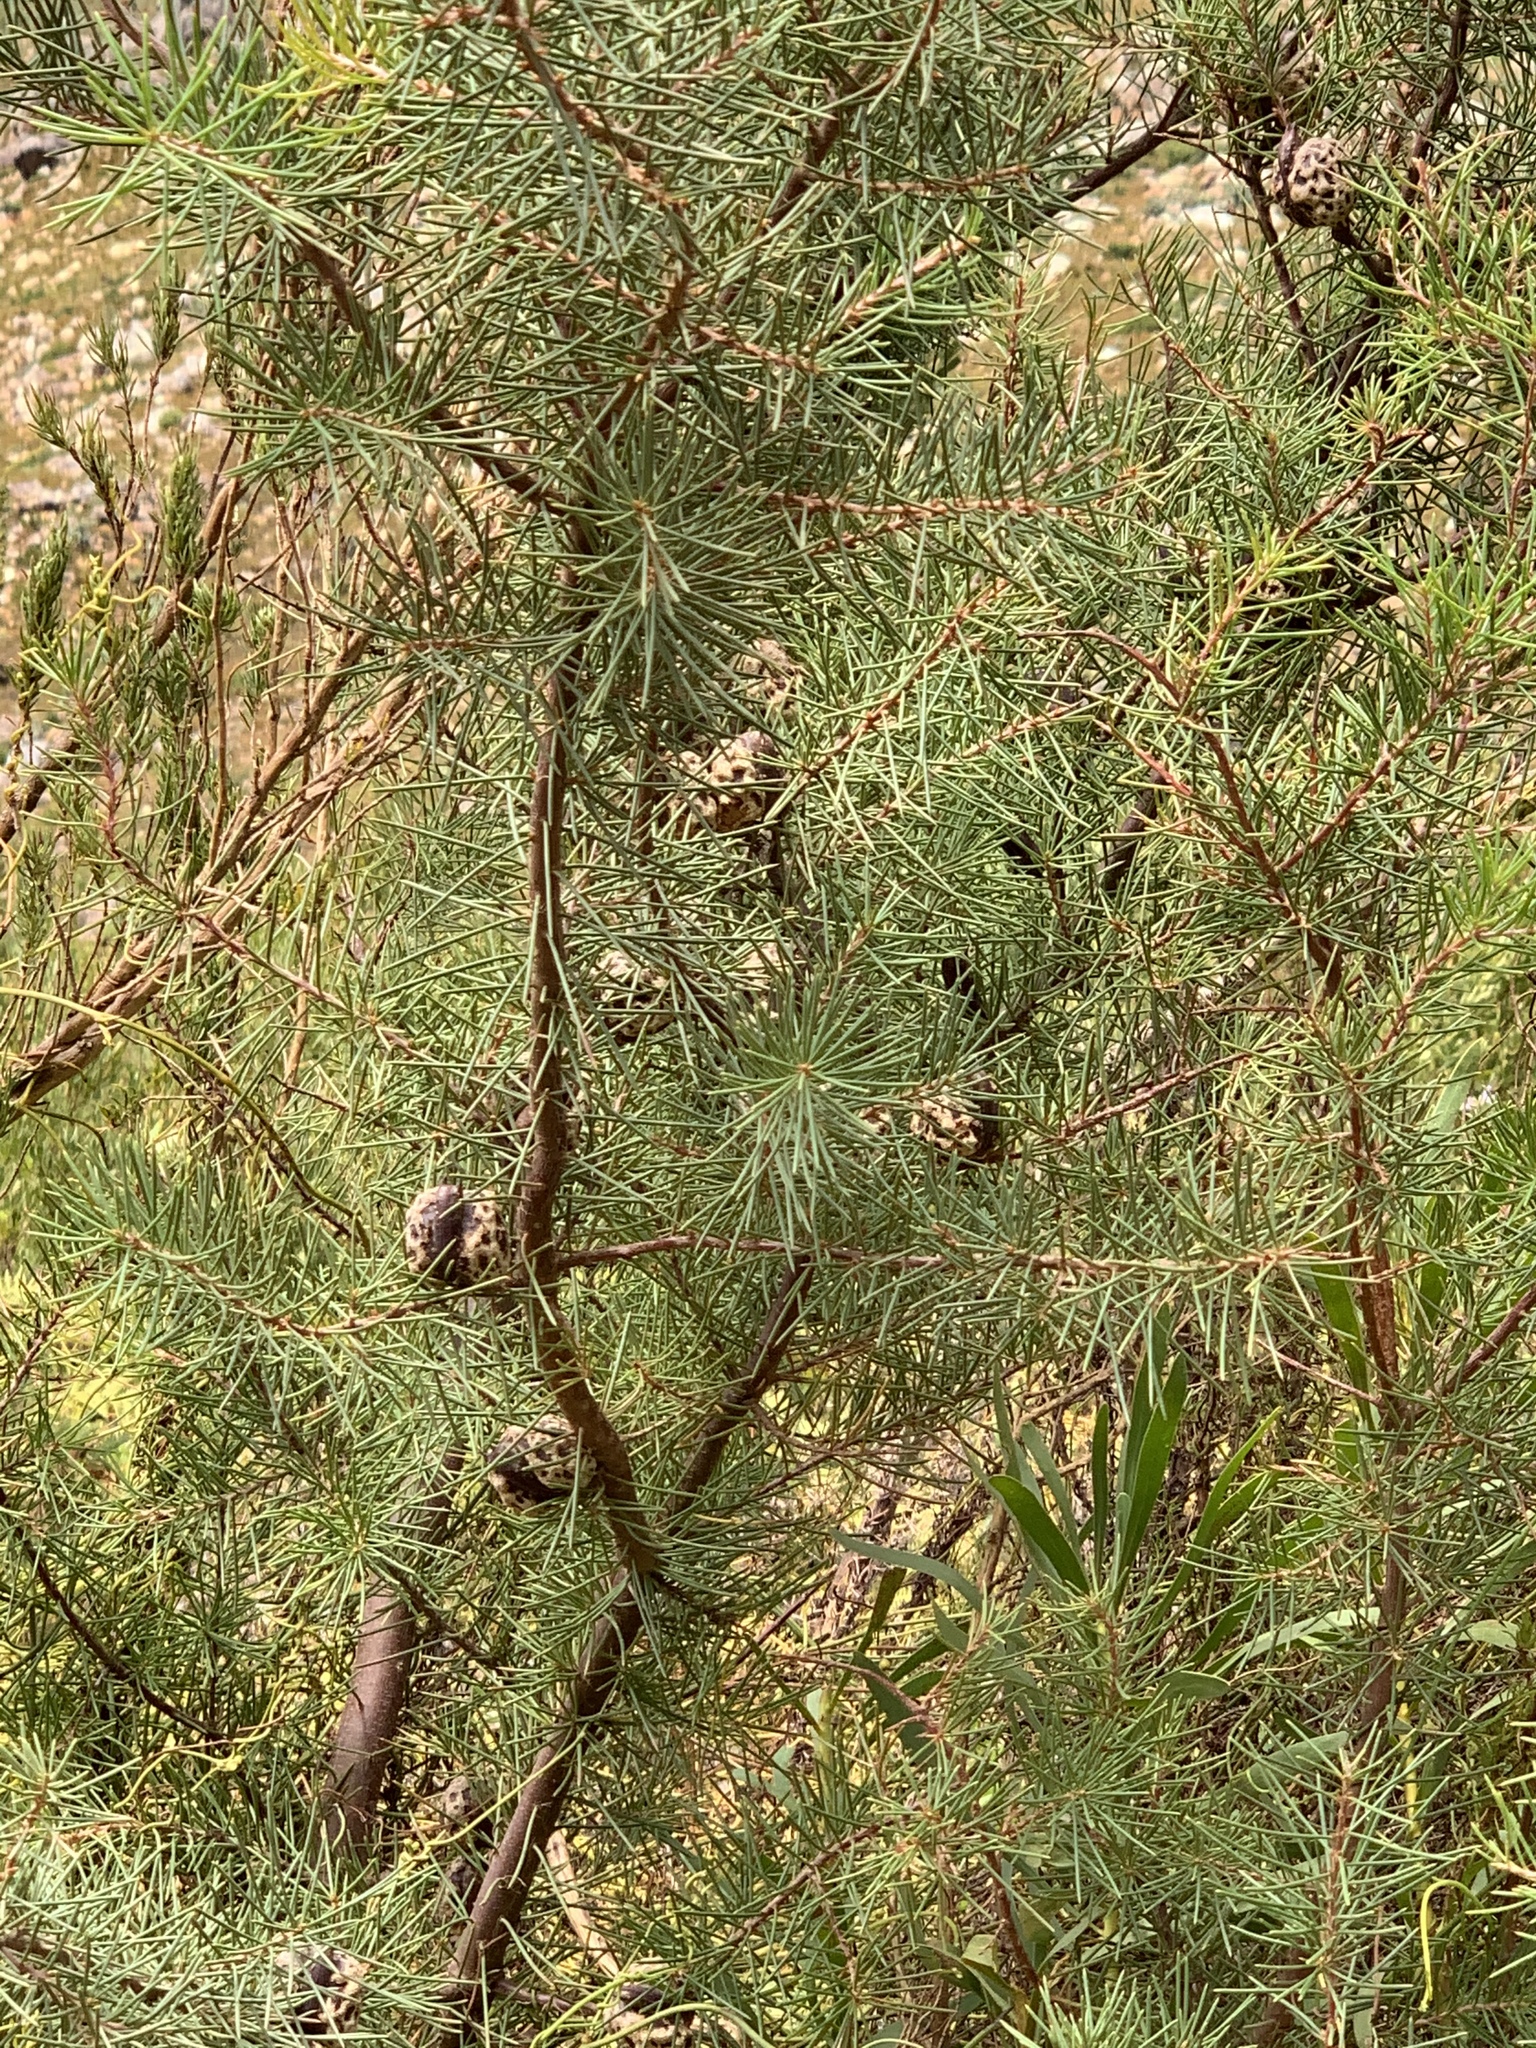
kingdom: Plantae
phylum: Tracheophyta
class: Magnoliopsida
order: Proteales
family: Proteaceae
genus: Hakea
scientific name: Hakea sericea
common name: Needle bush
